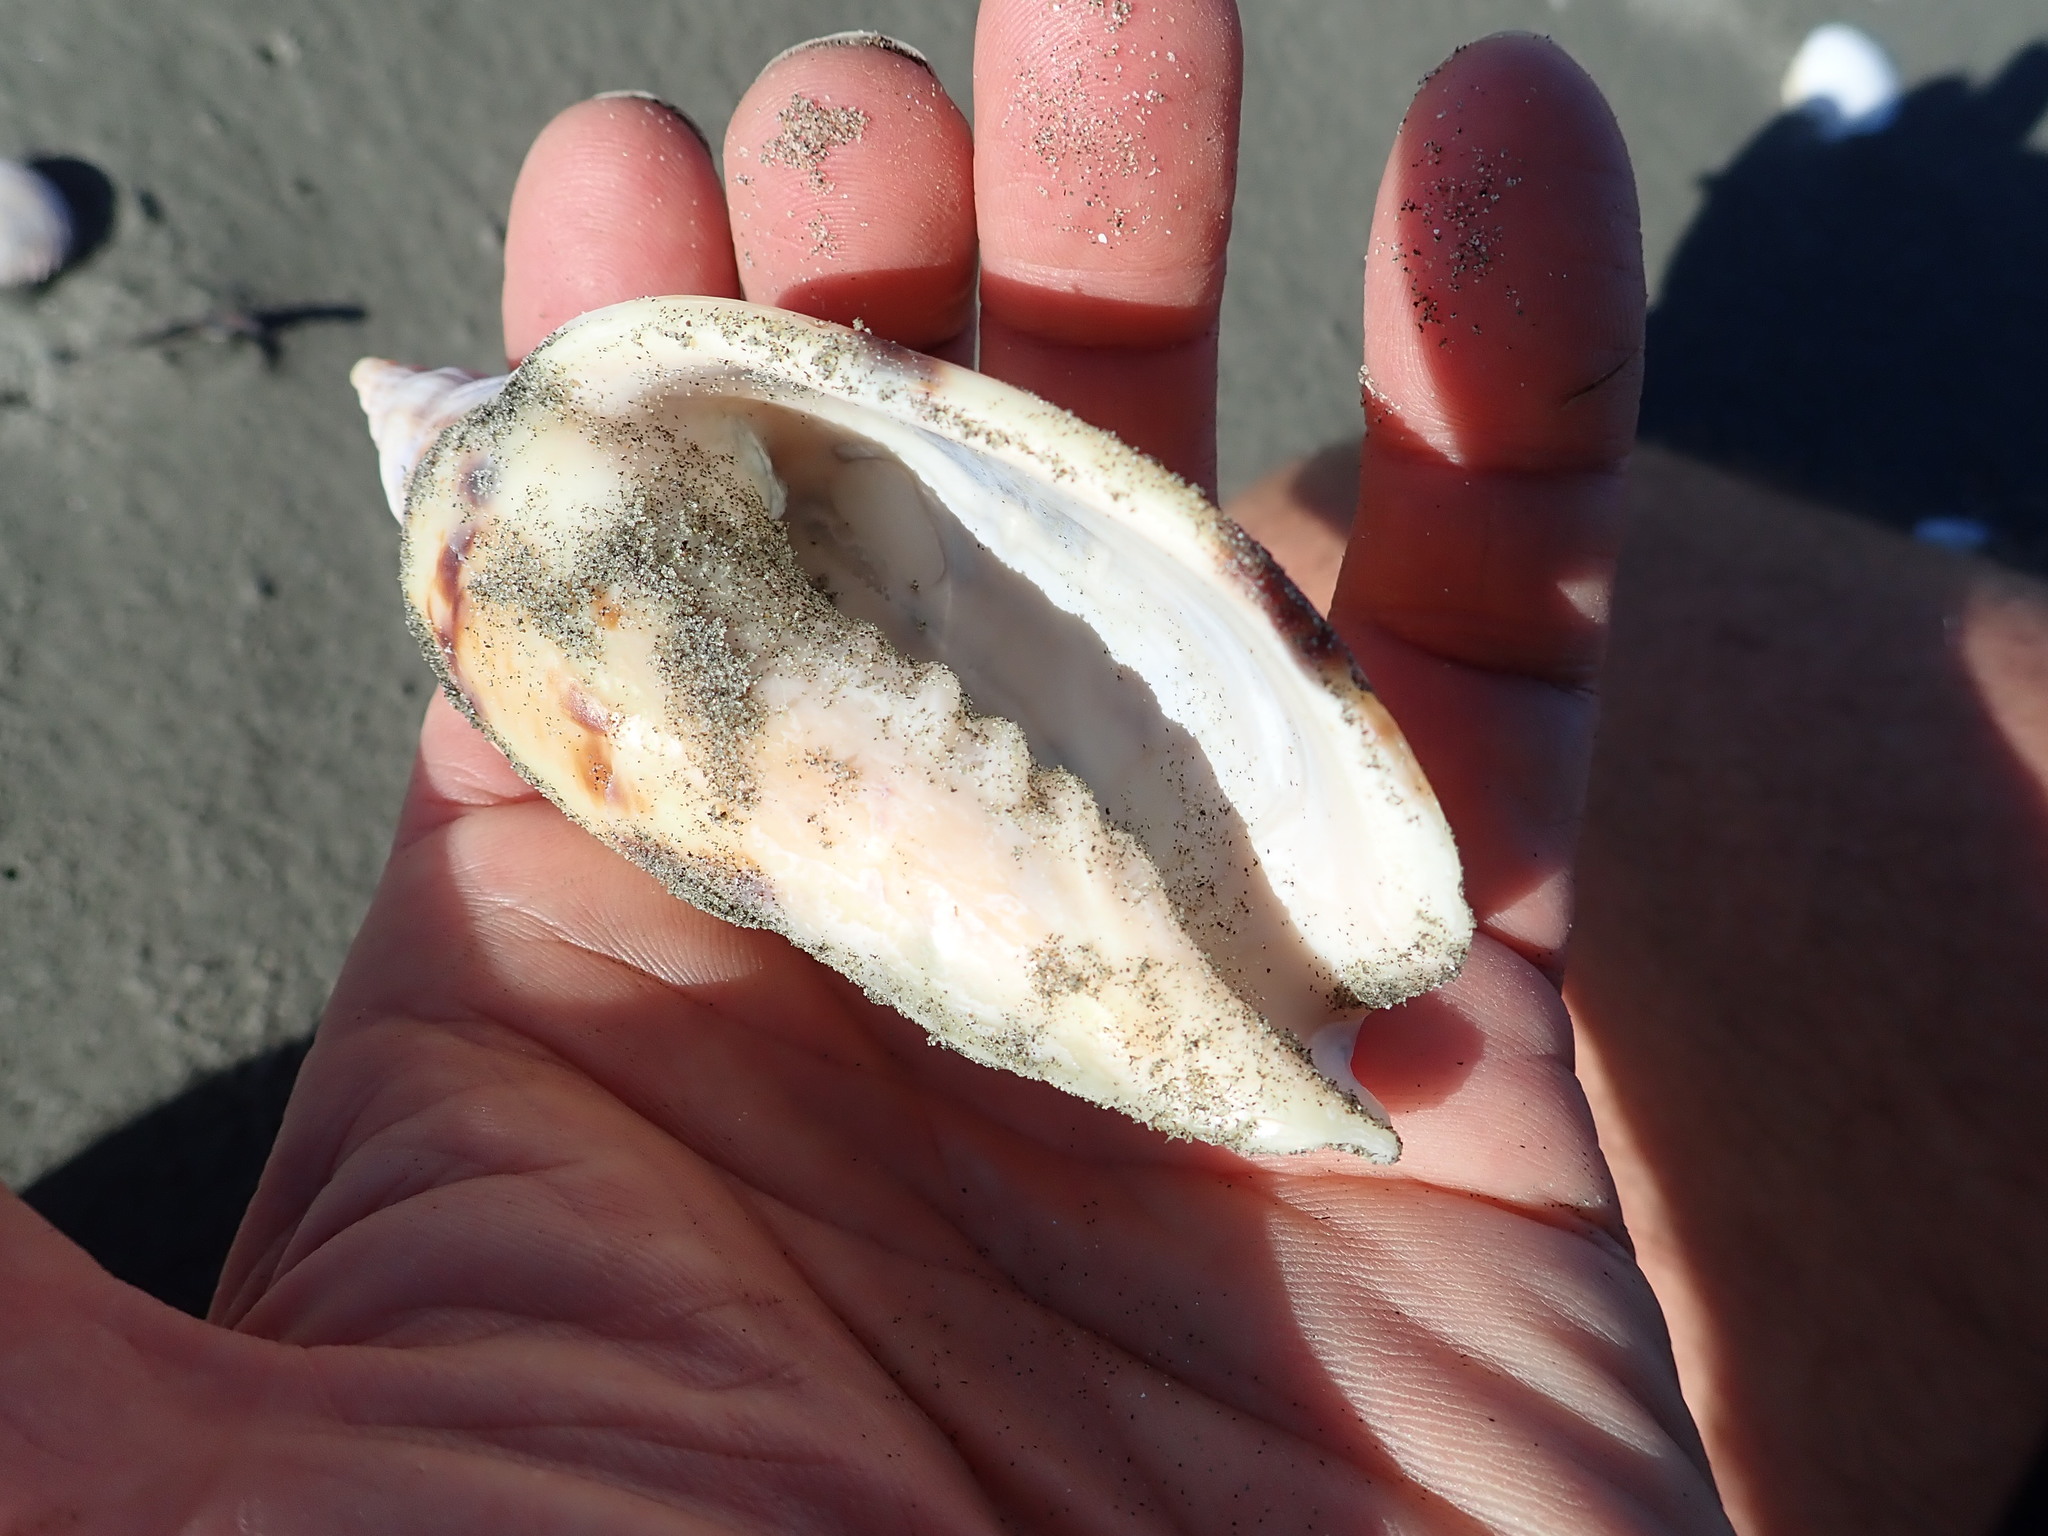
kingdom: Animalia
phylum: Mollusca
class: Gastropoda
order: Neogastropoda
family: Volutidae
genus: Alcithoe
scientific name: Alcithoe arabica
